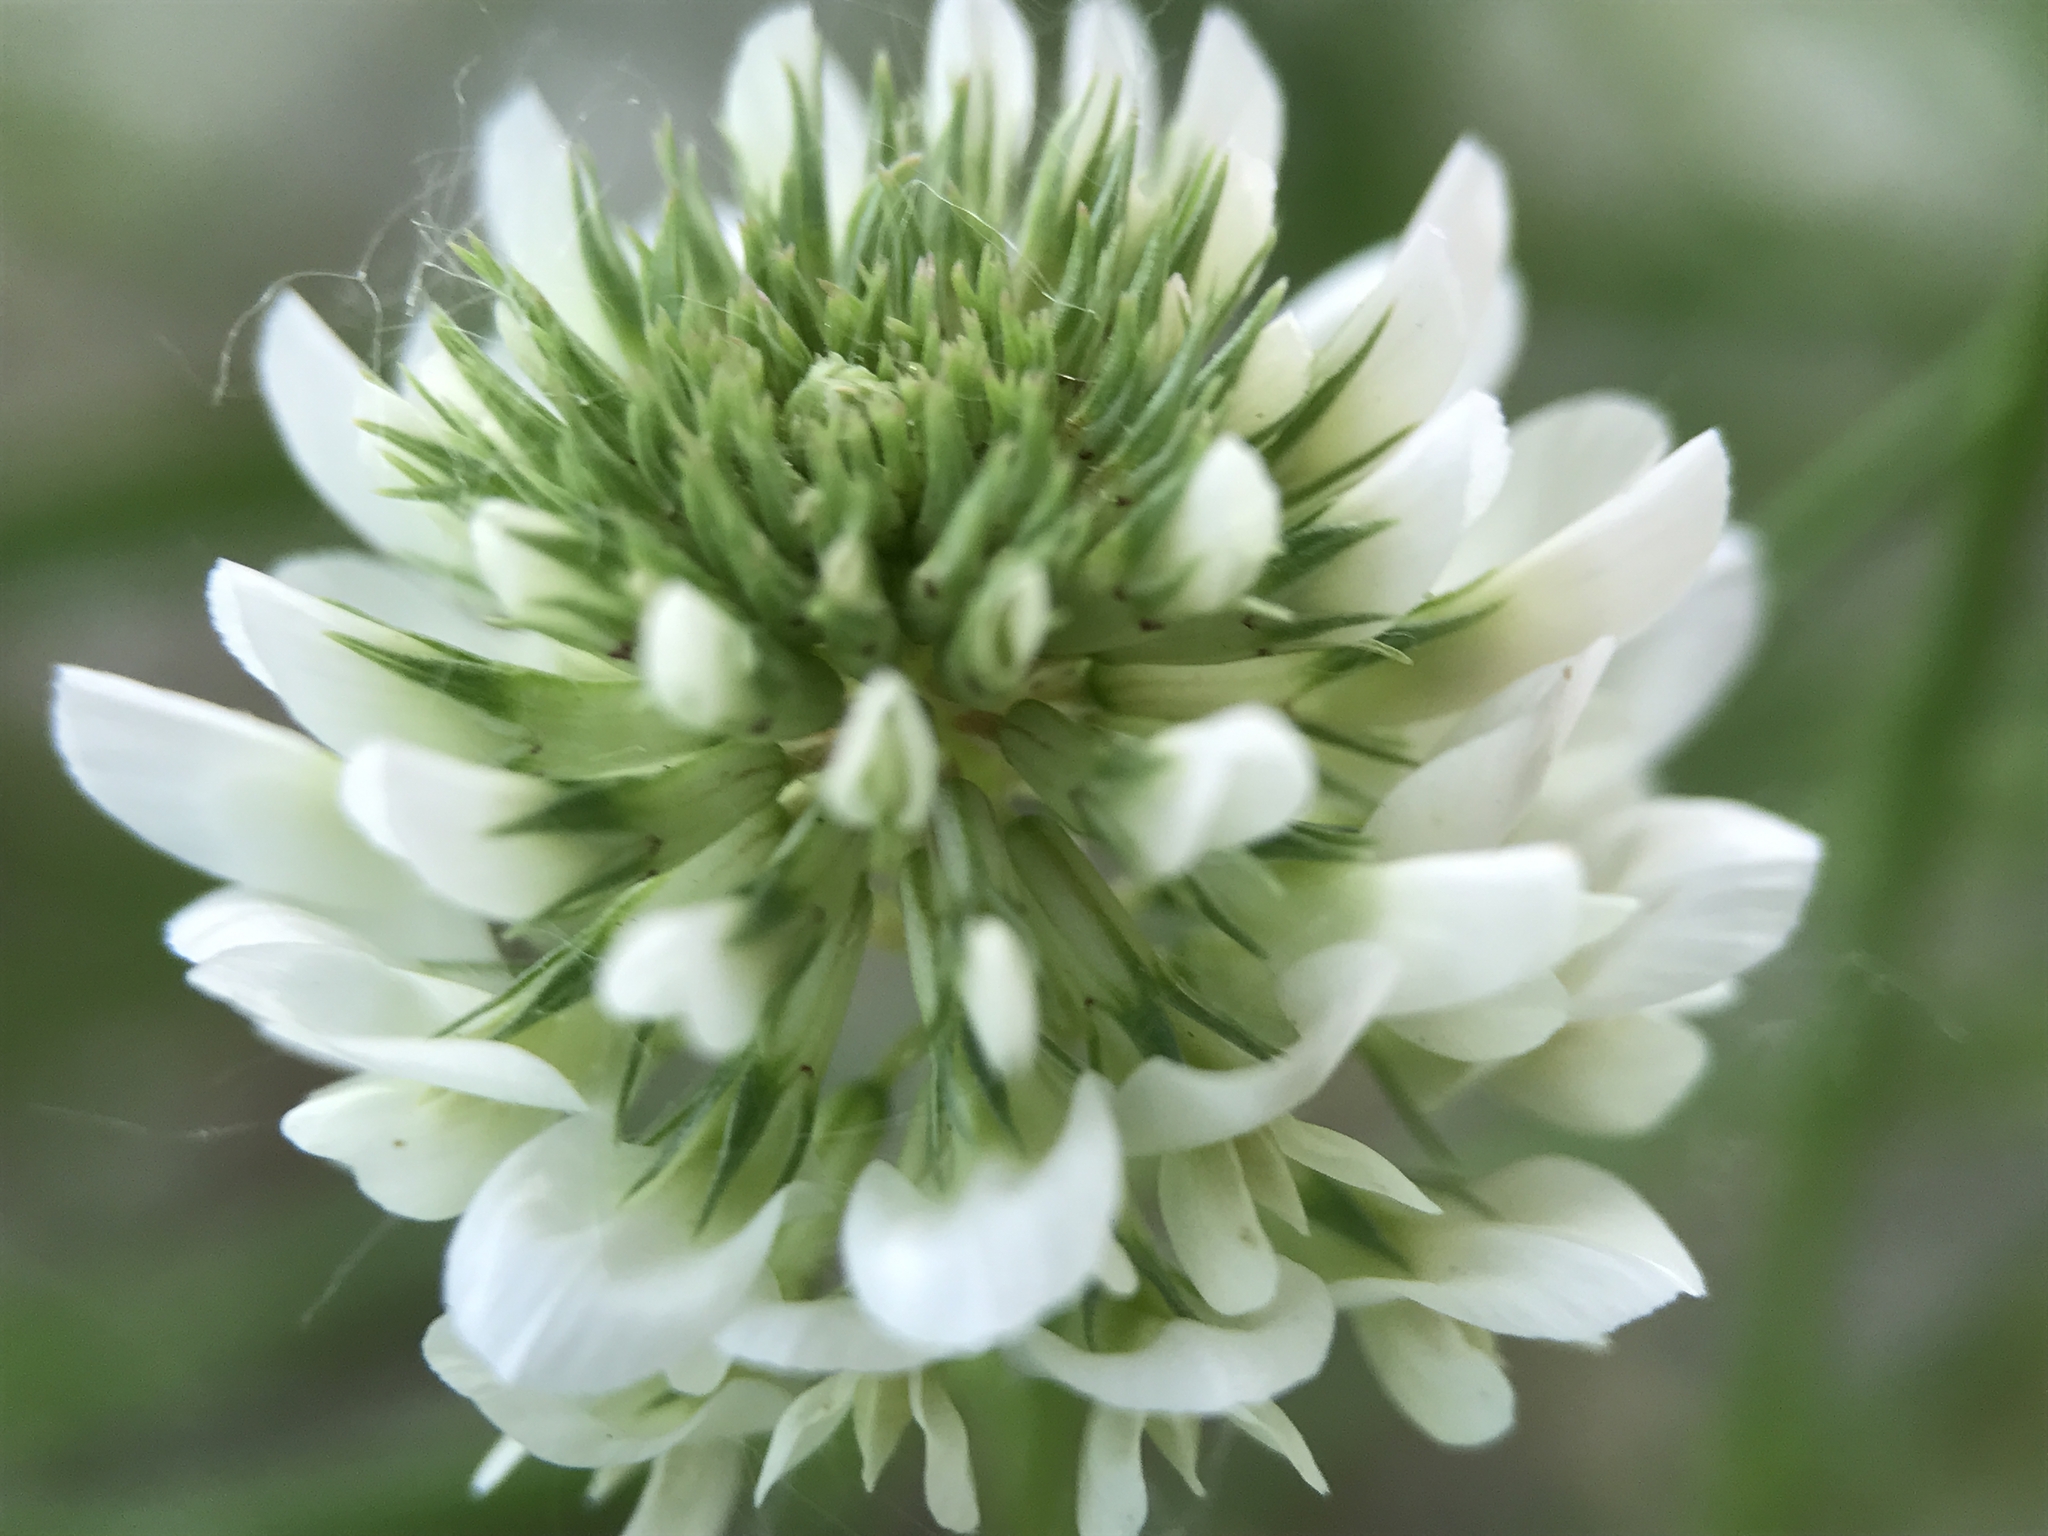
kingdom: Plantae
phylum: Tracheophyta
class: Magnoliopsida
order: Fabales
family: Fabaceae
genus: Trifolium
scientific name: Trifolium repens
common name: White clover
